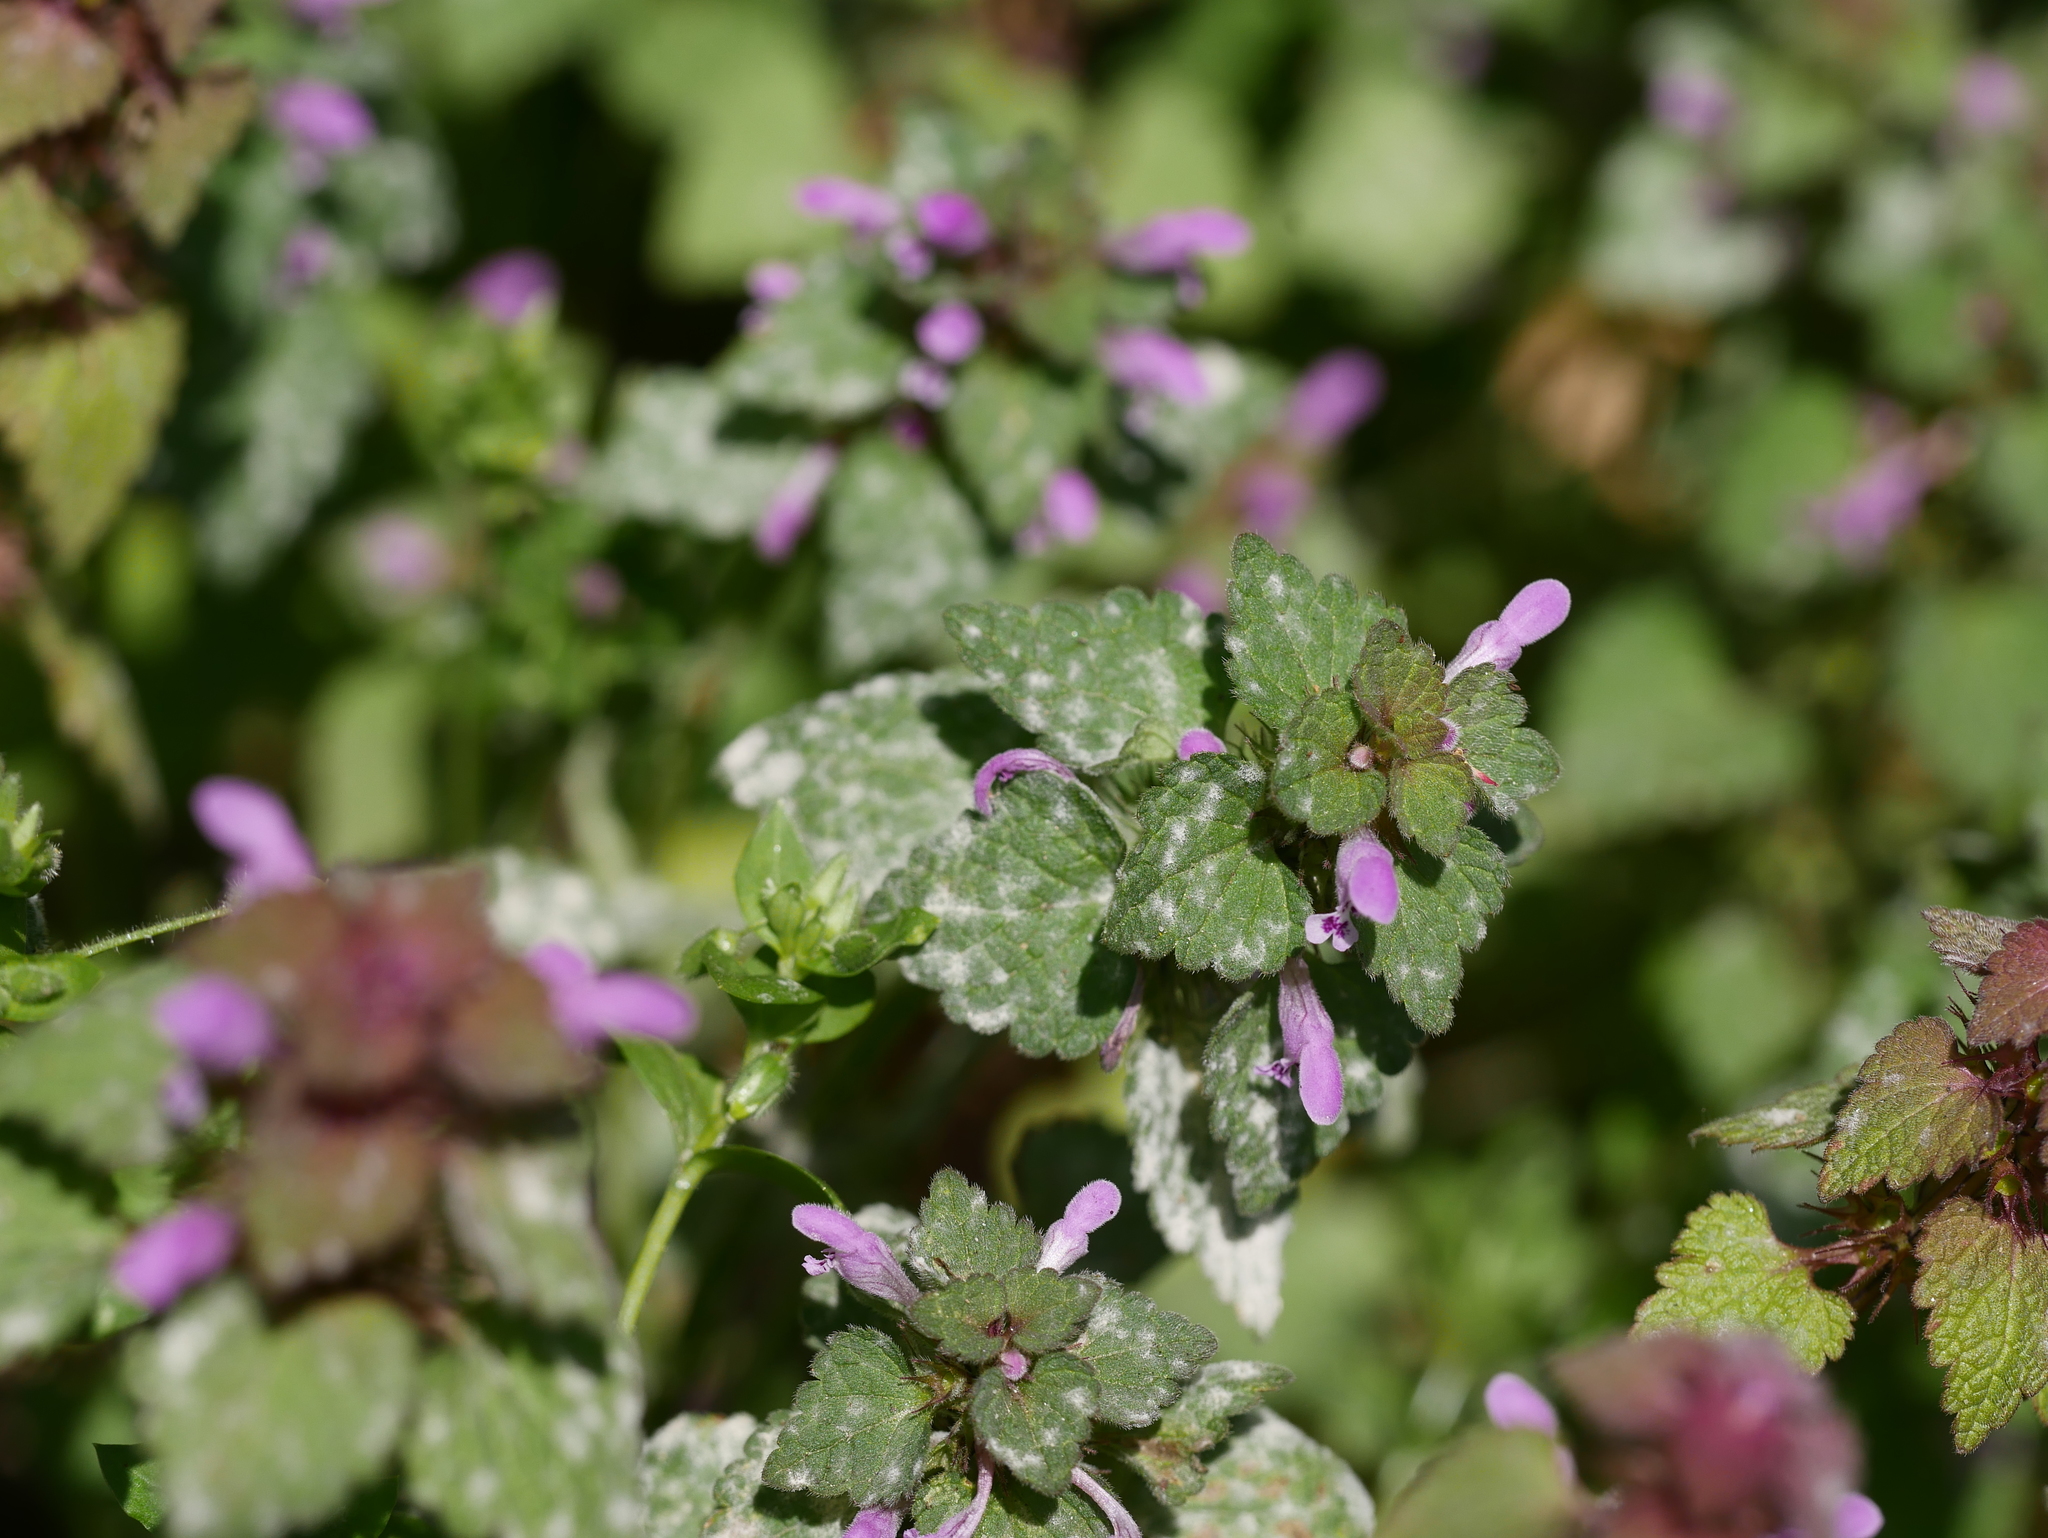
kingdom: Plantae
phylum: Tracheophyta
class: Magnoliopsida
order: Lamiales
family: Lamiaceae
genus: Lamium
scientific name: Lamium purpureum
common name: Red dead-nettle
